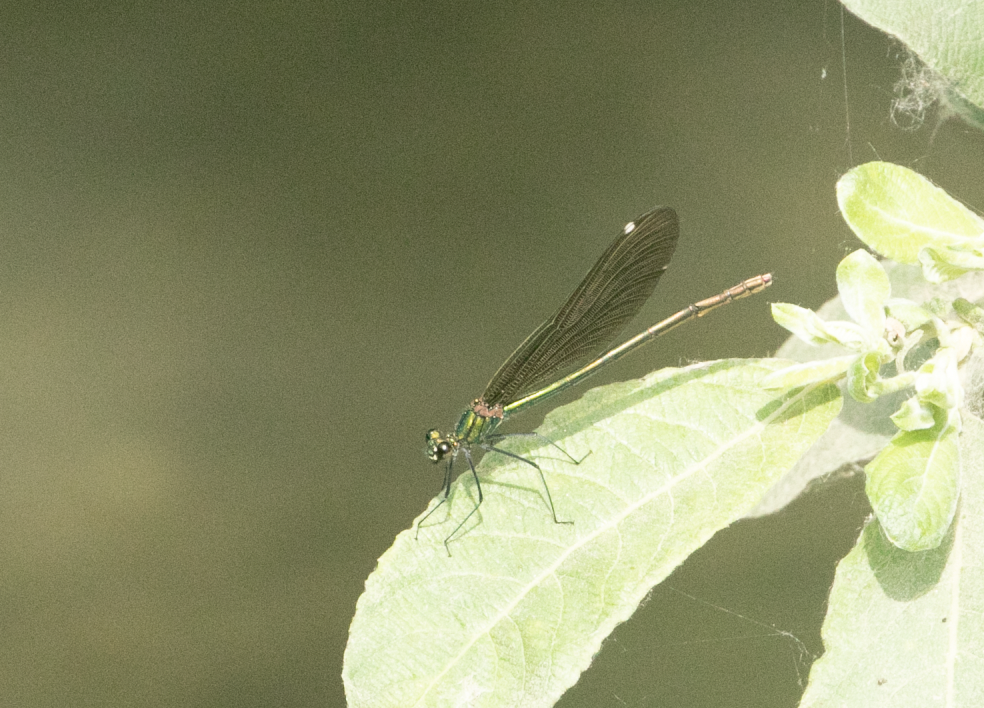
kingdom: Animalia
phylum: Arthropoda
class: Insecta
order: Odonata
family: Calopterygidae
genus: Calopteryx
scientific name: Calopteryx splendens
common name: Banded demoiselle
